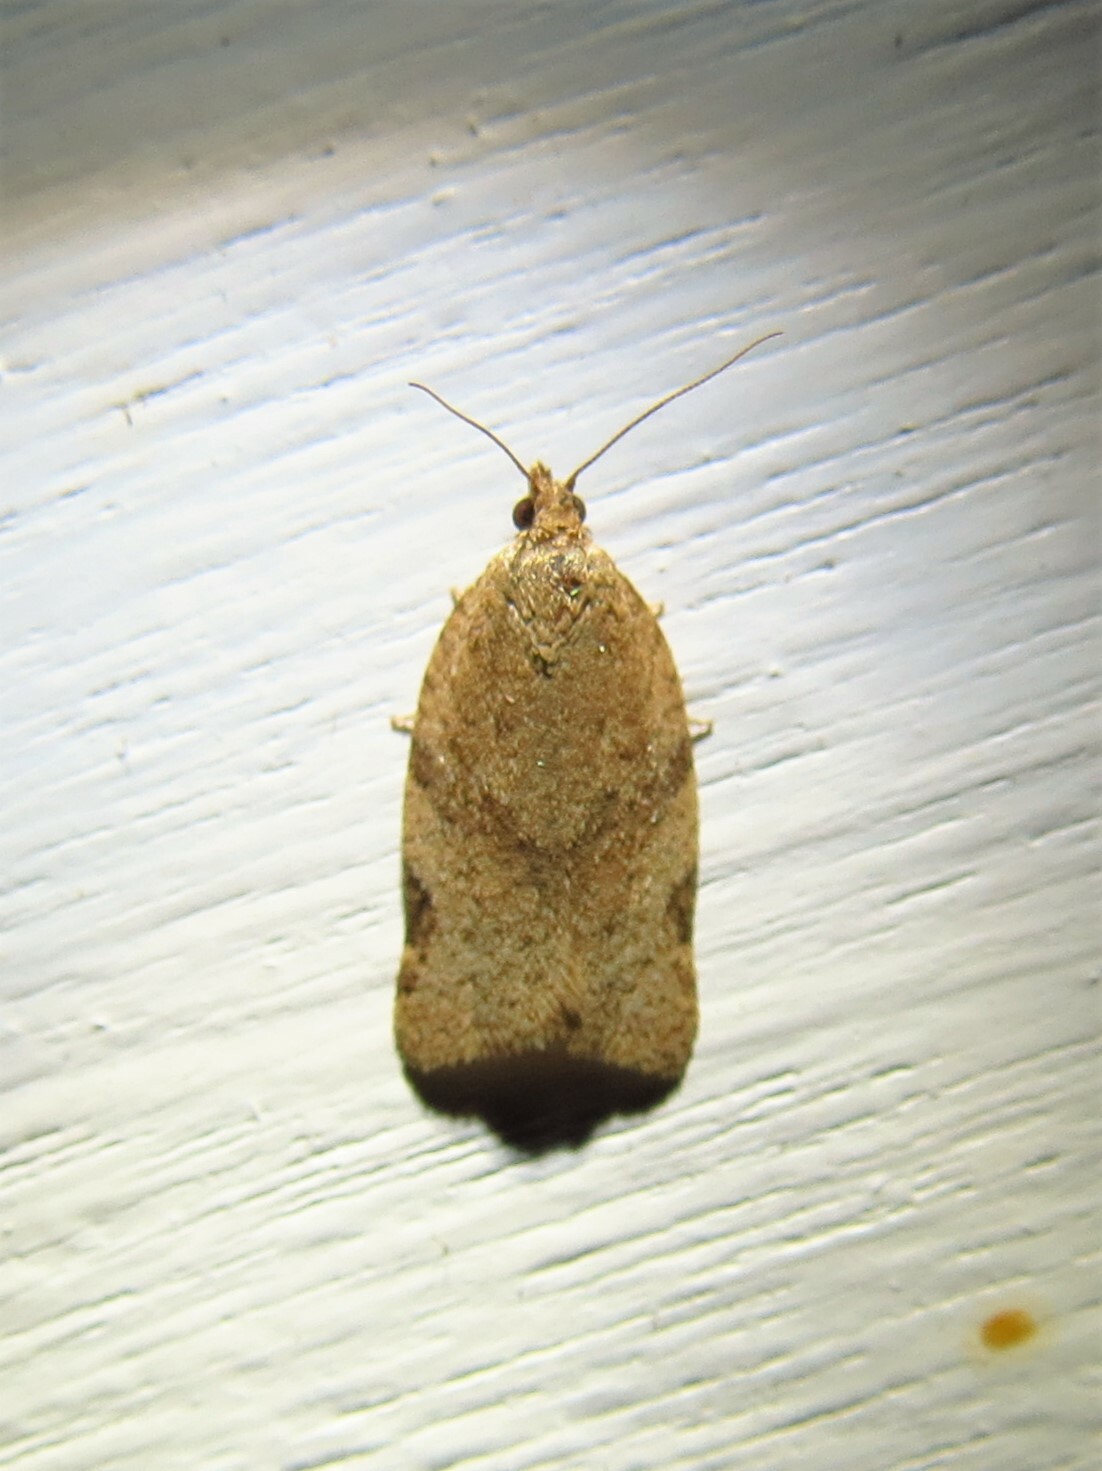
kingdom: Animalia
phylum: Arthropoda
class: Insecta
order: Lepidoptera
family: Tortricidae
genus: Clepsis
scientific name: Clepsis virescana
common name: Greenish apple moth
